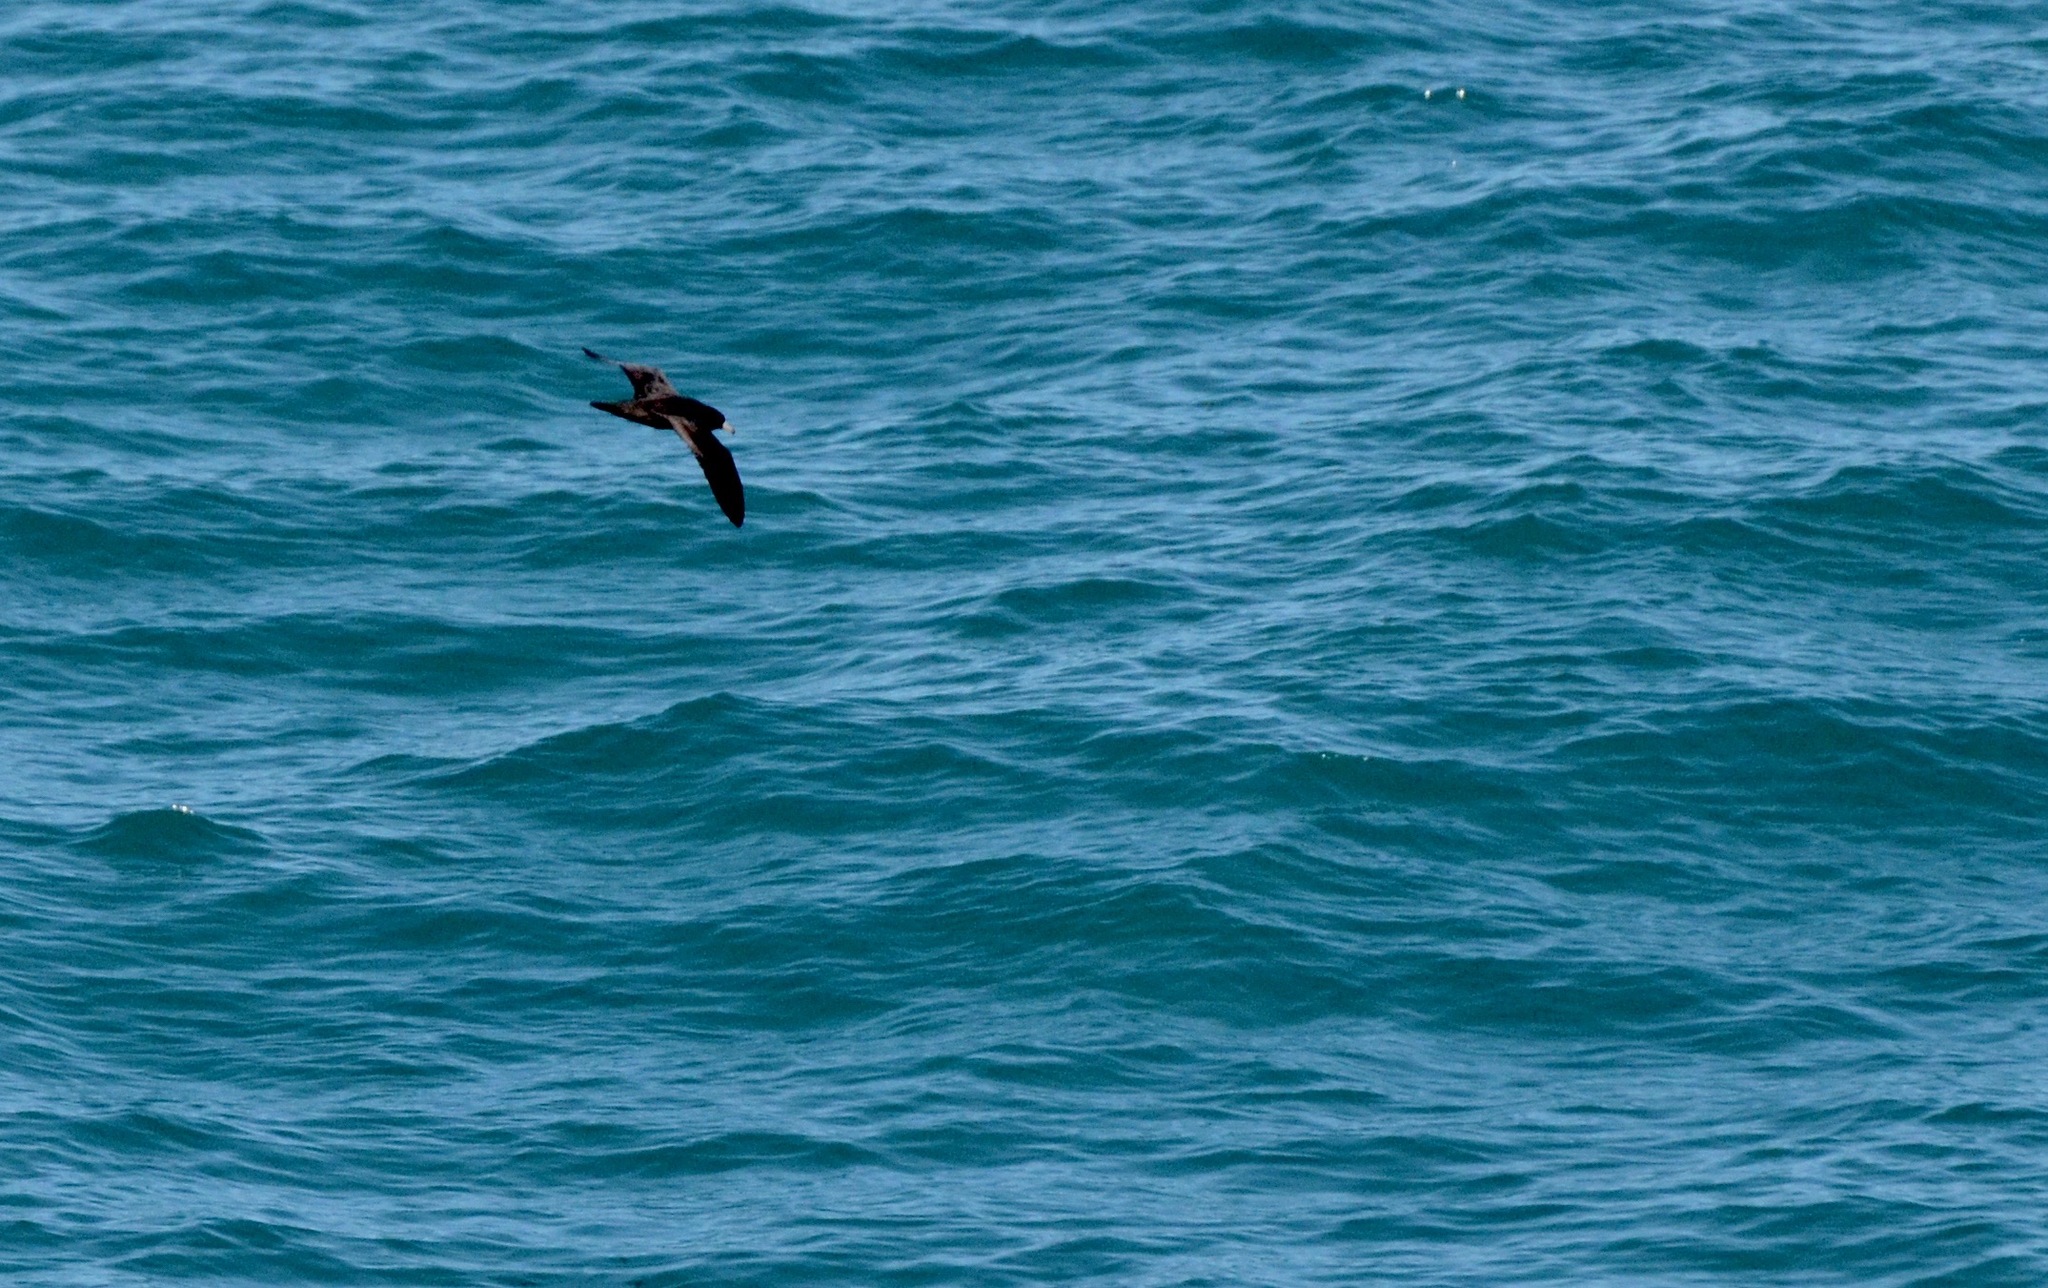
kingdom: Animalia
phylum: Chordata
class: Aves
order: Procellariiformes
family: Procellariidae
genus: Procellaria
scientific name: Procellaria westlandica
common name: Westland petrel
